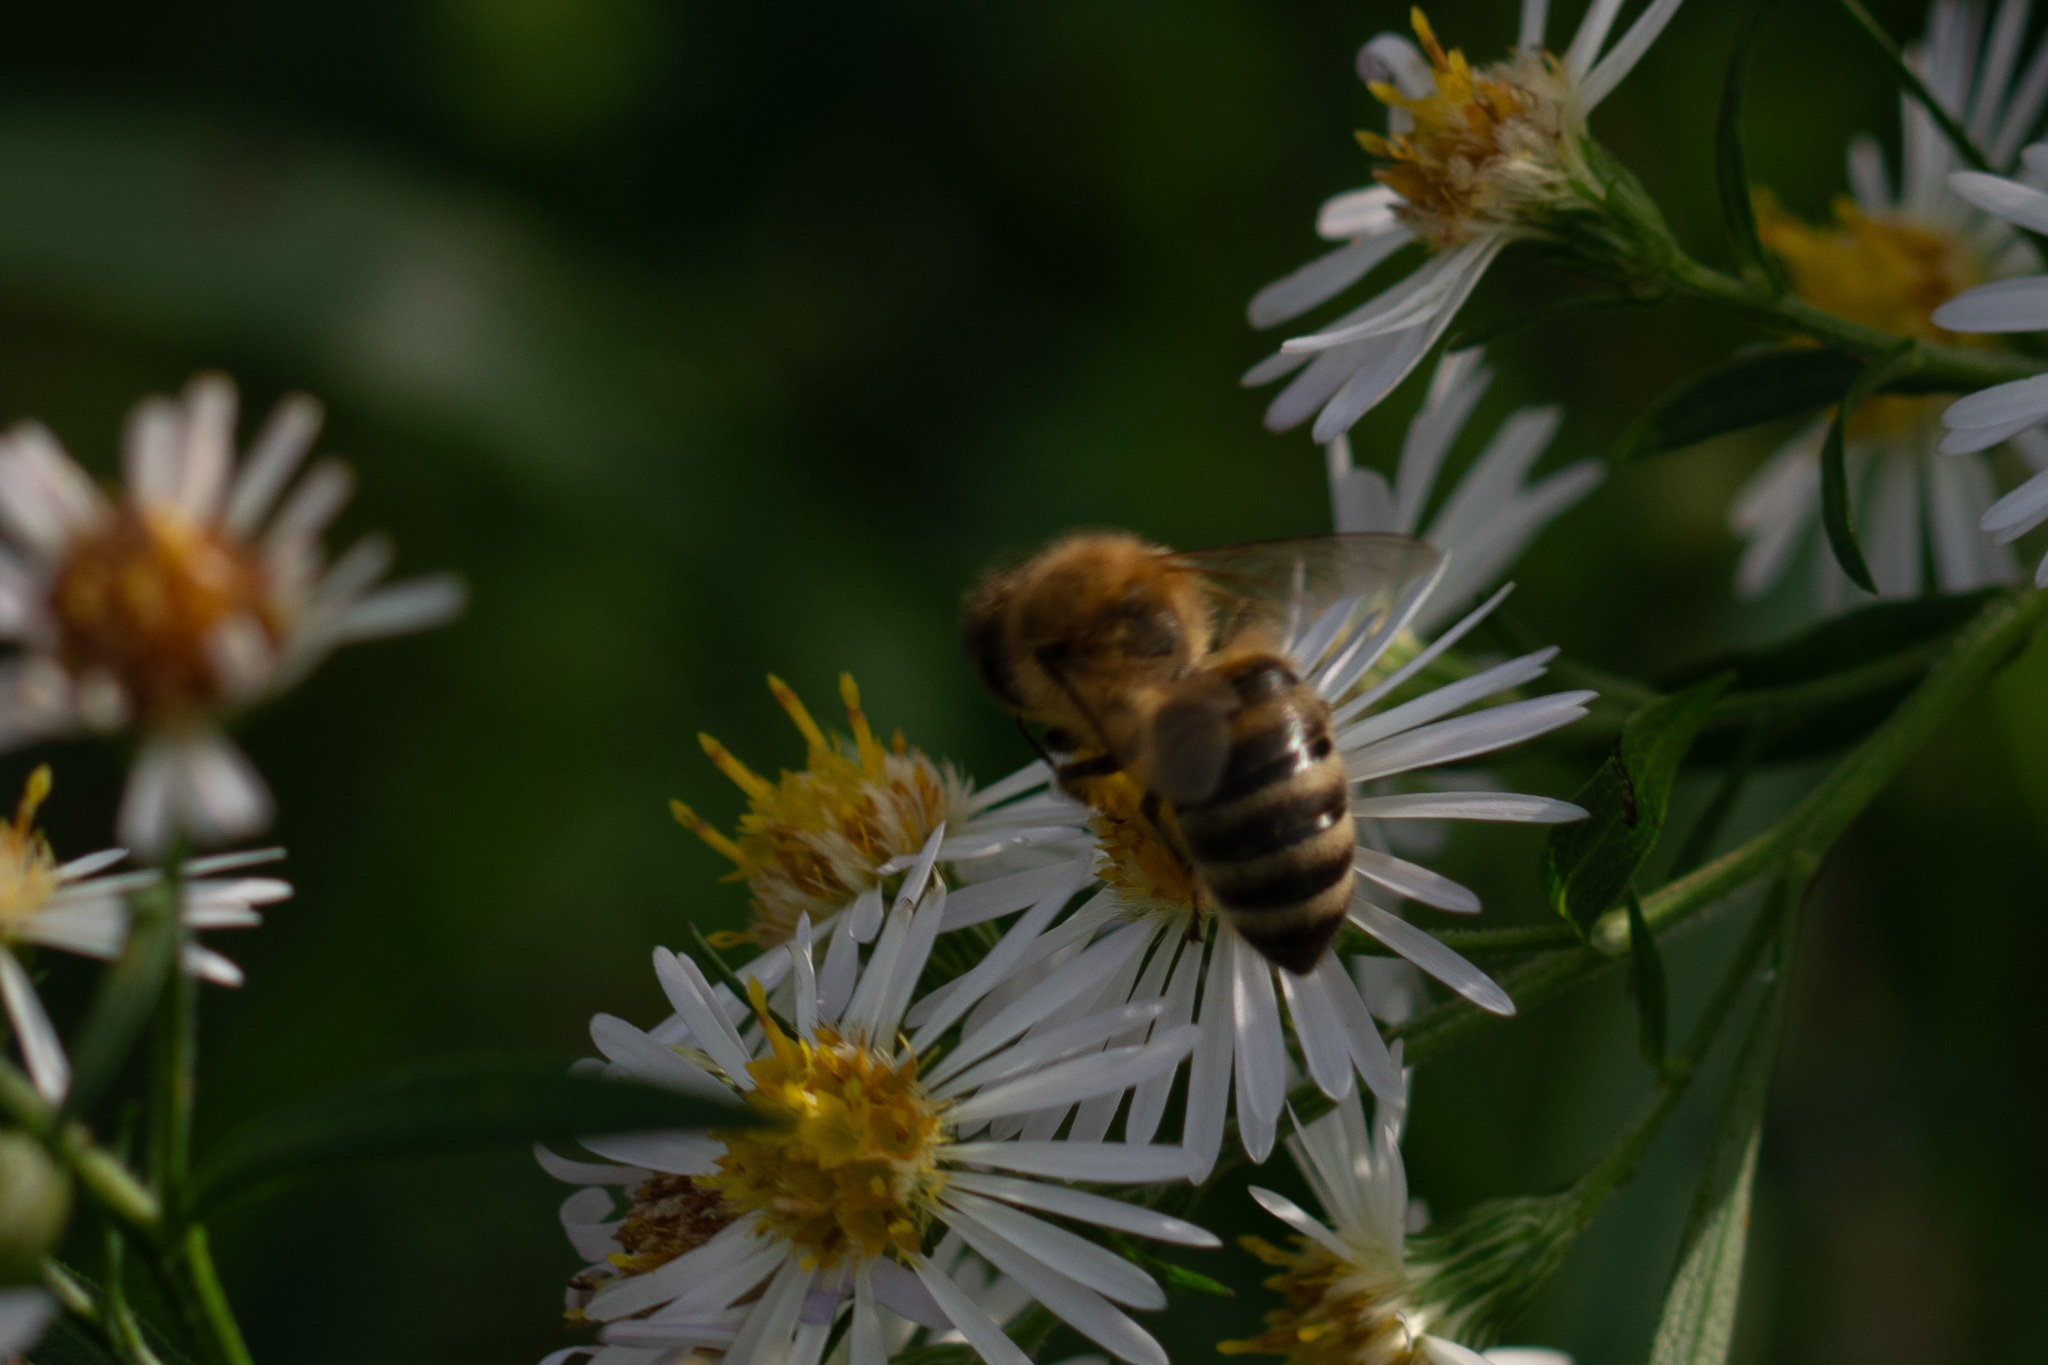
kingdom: Animalia
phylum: Arthropoda
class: Insecta
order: Hymenoptera
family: Apidae
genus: Apis
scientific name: Apis mellifera
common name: Honey bee
